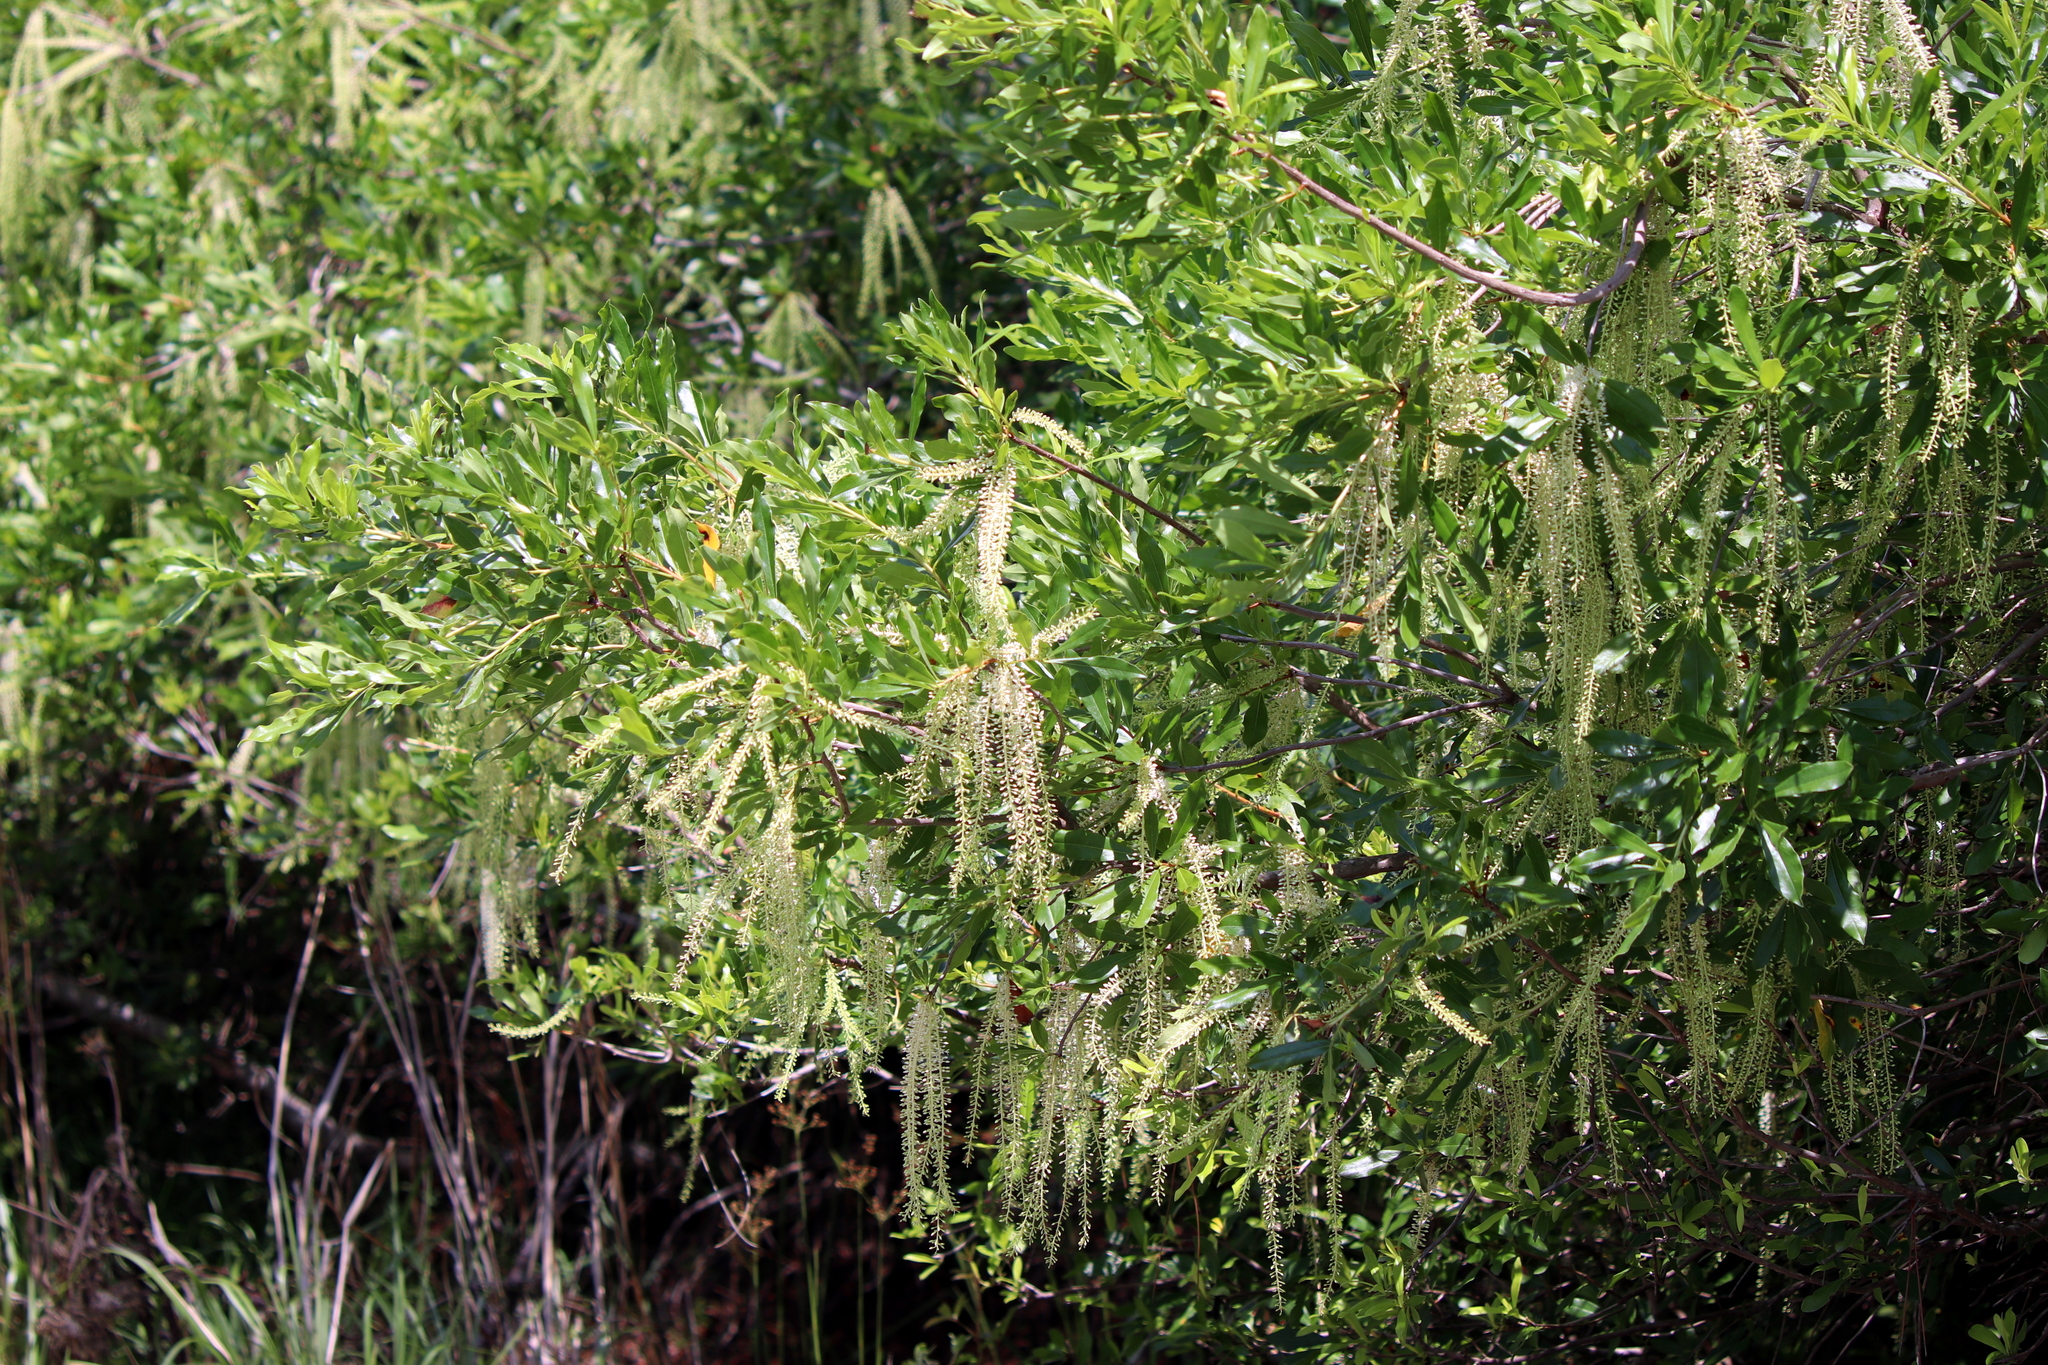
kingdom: Plantae
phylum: Tracheophyta
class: Magnoliopsida
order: Ericales
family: Cyrillaceae
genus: Cyrilla
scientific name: Cyrilla racemiflora
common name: Black titi
